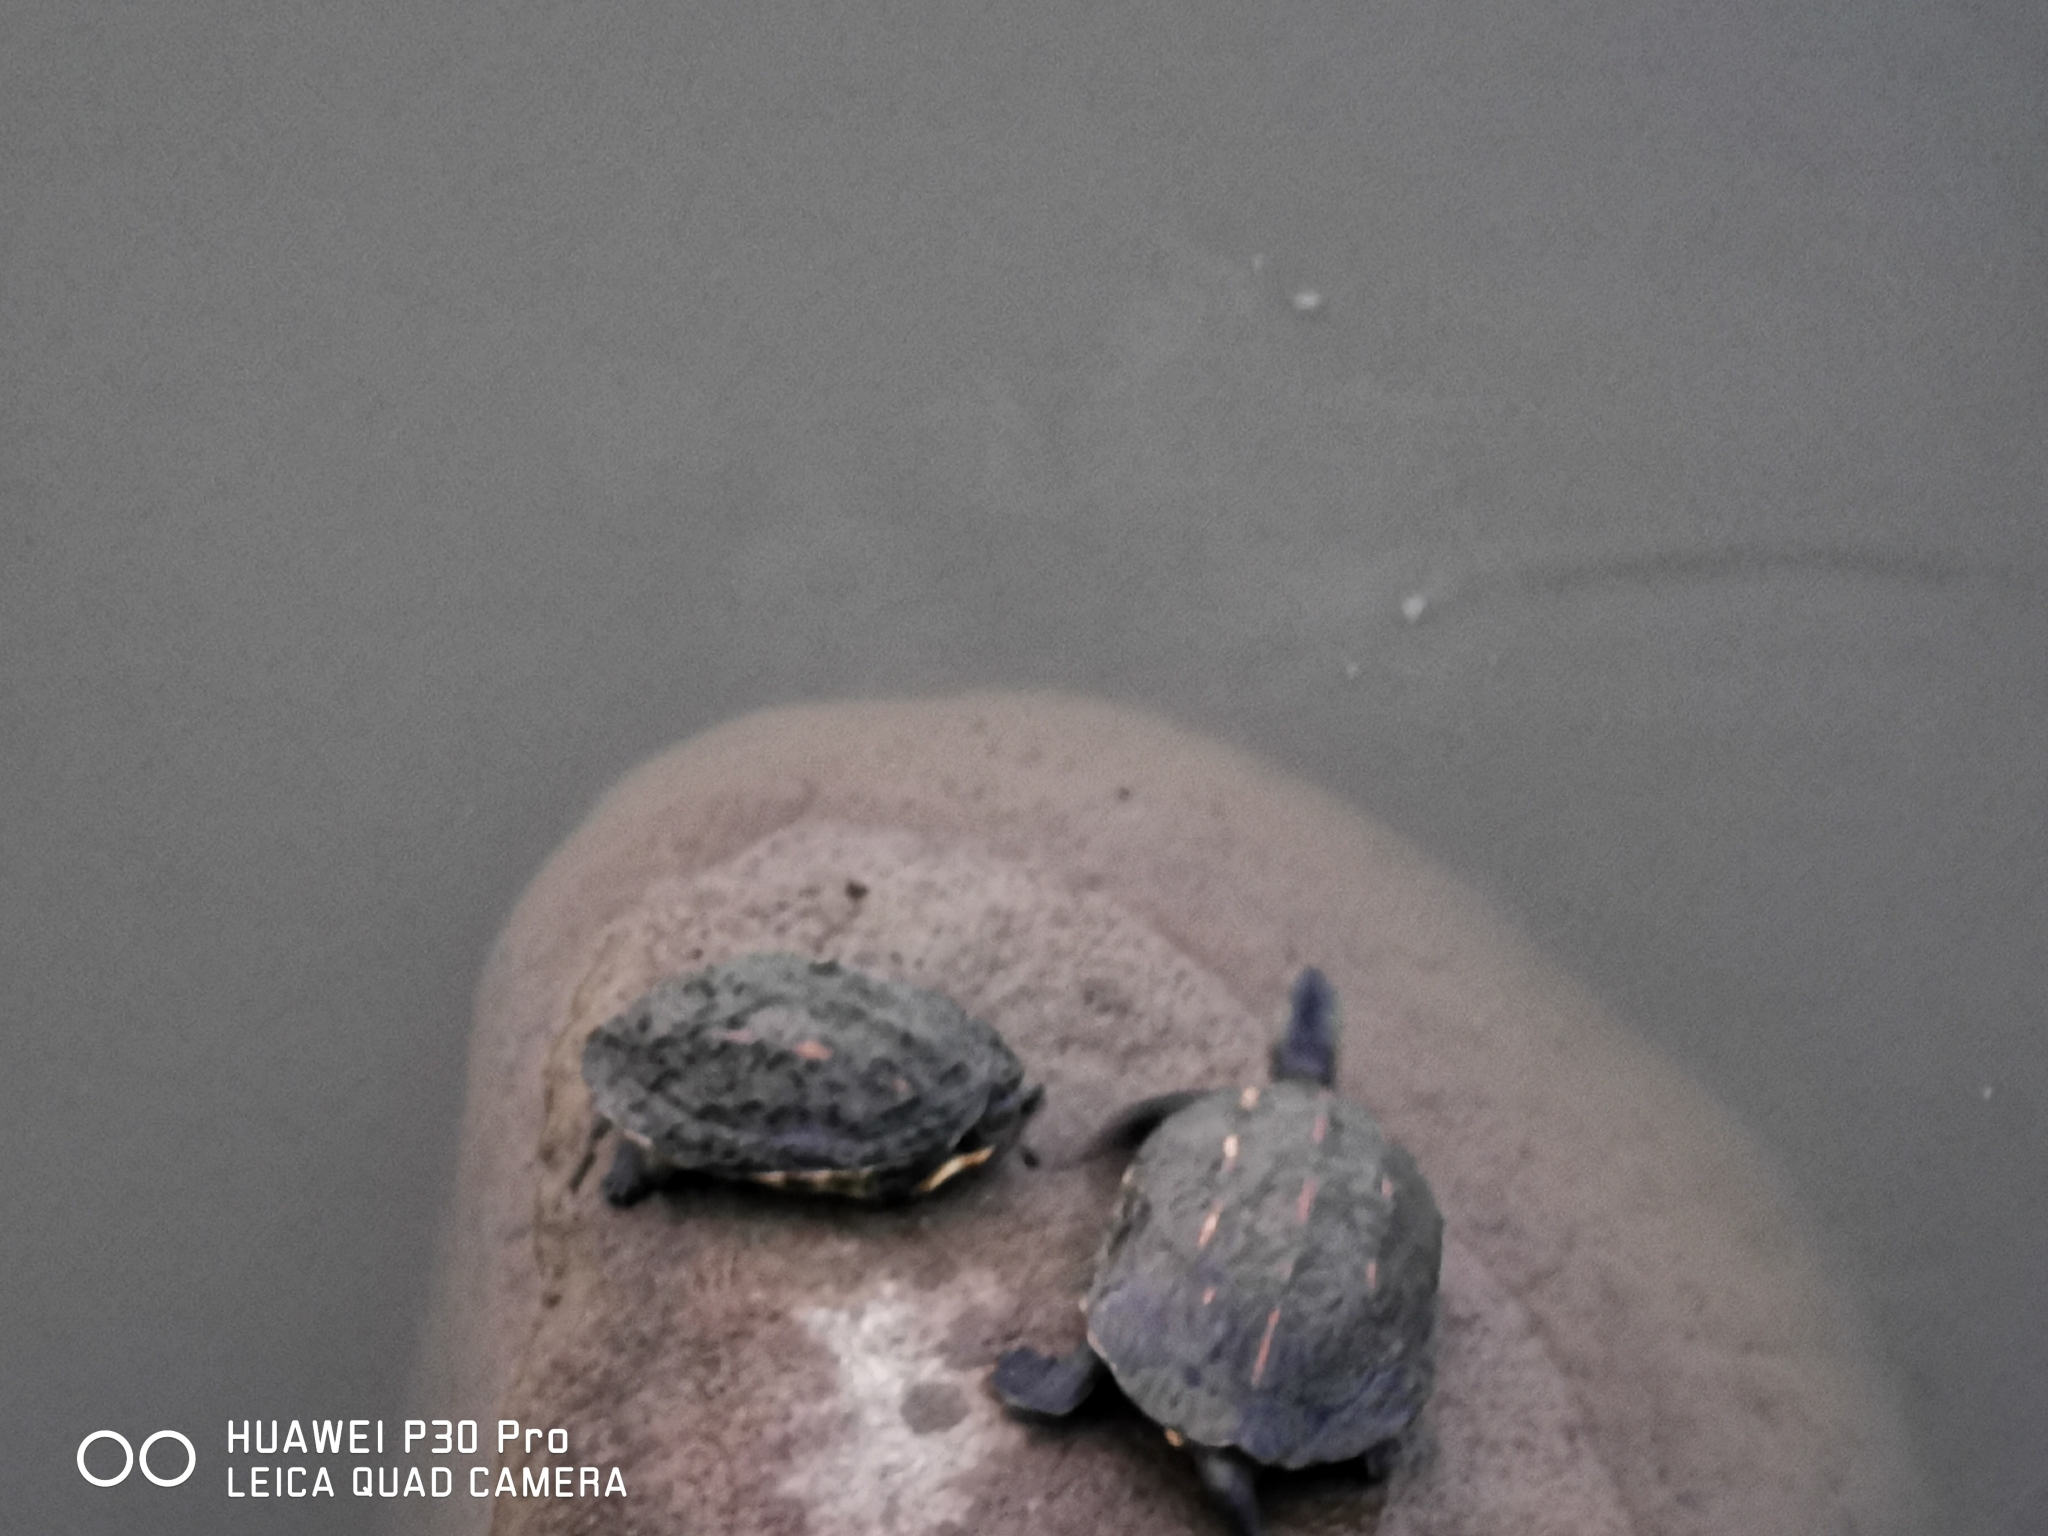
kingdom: Animalia
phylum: Chordata
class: Testudines
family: Geoemydidae
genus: Mauremys
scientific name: Mauremys sinensis
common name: Chinese stripe-necked turtle
